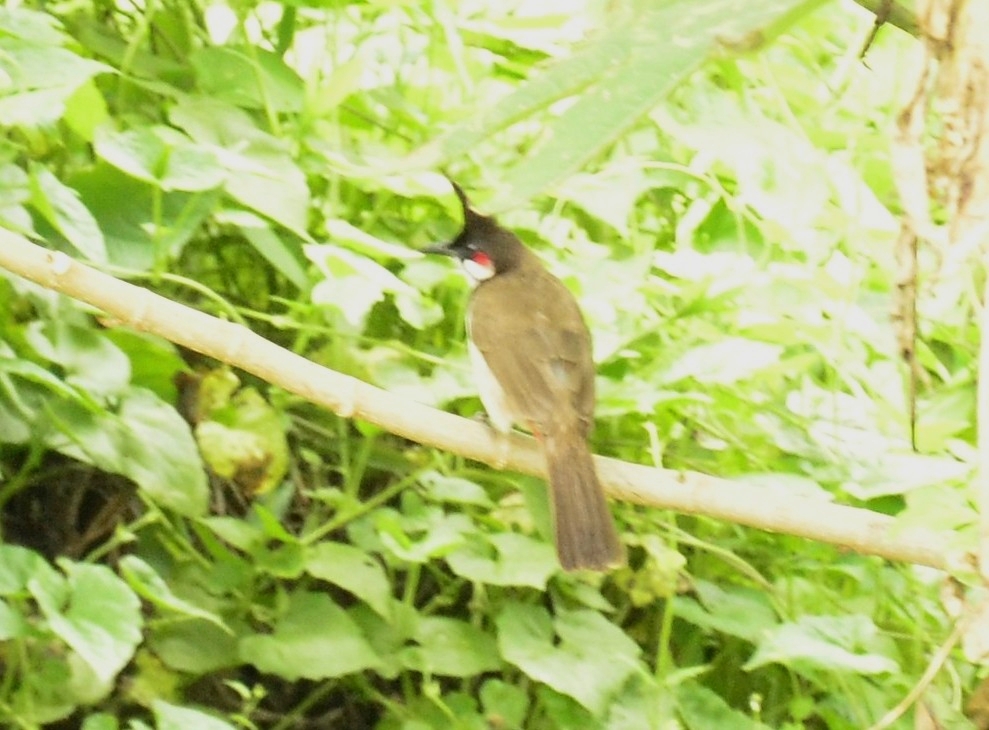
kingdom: Animalia
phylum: Chordata
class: Aves
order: Passeriformes
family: Pycnonotidae
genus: Pycnonotus
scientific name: Pycnonotus jocosus
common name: Red-whiskered bulbul
